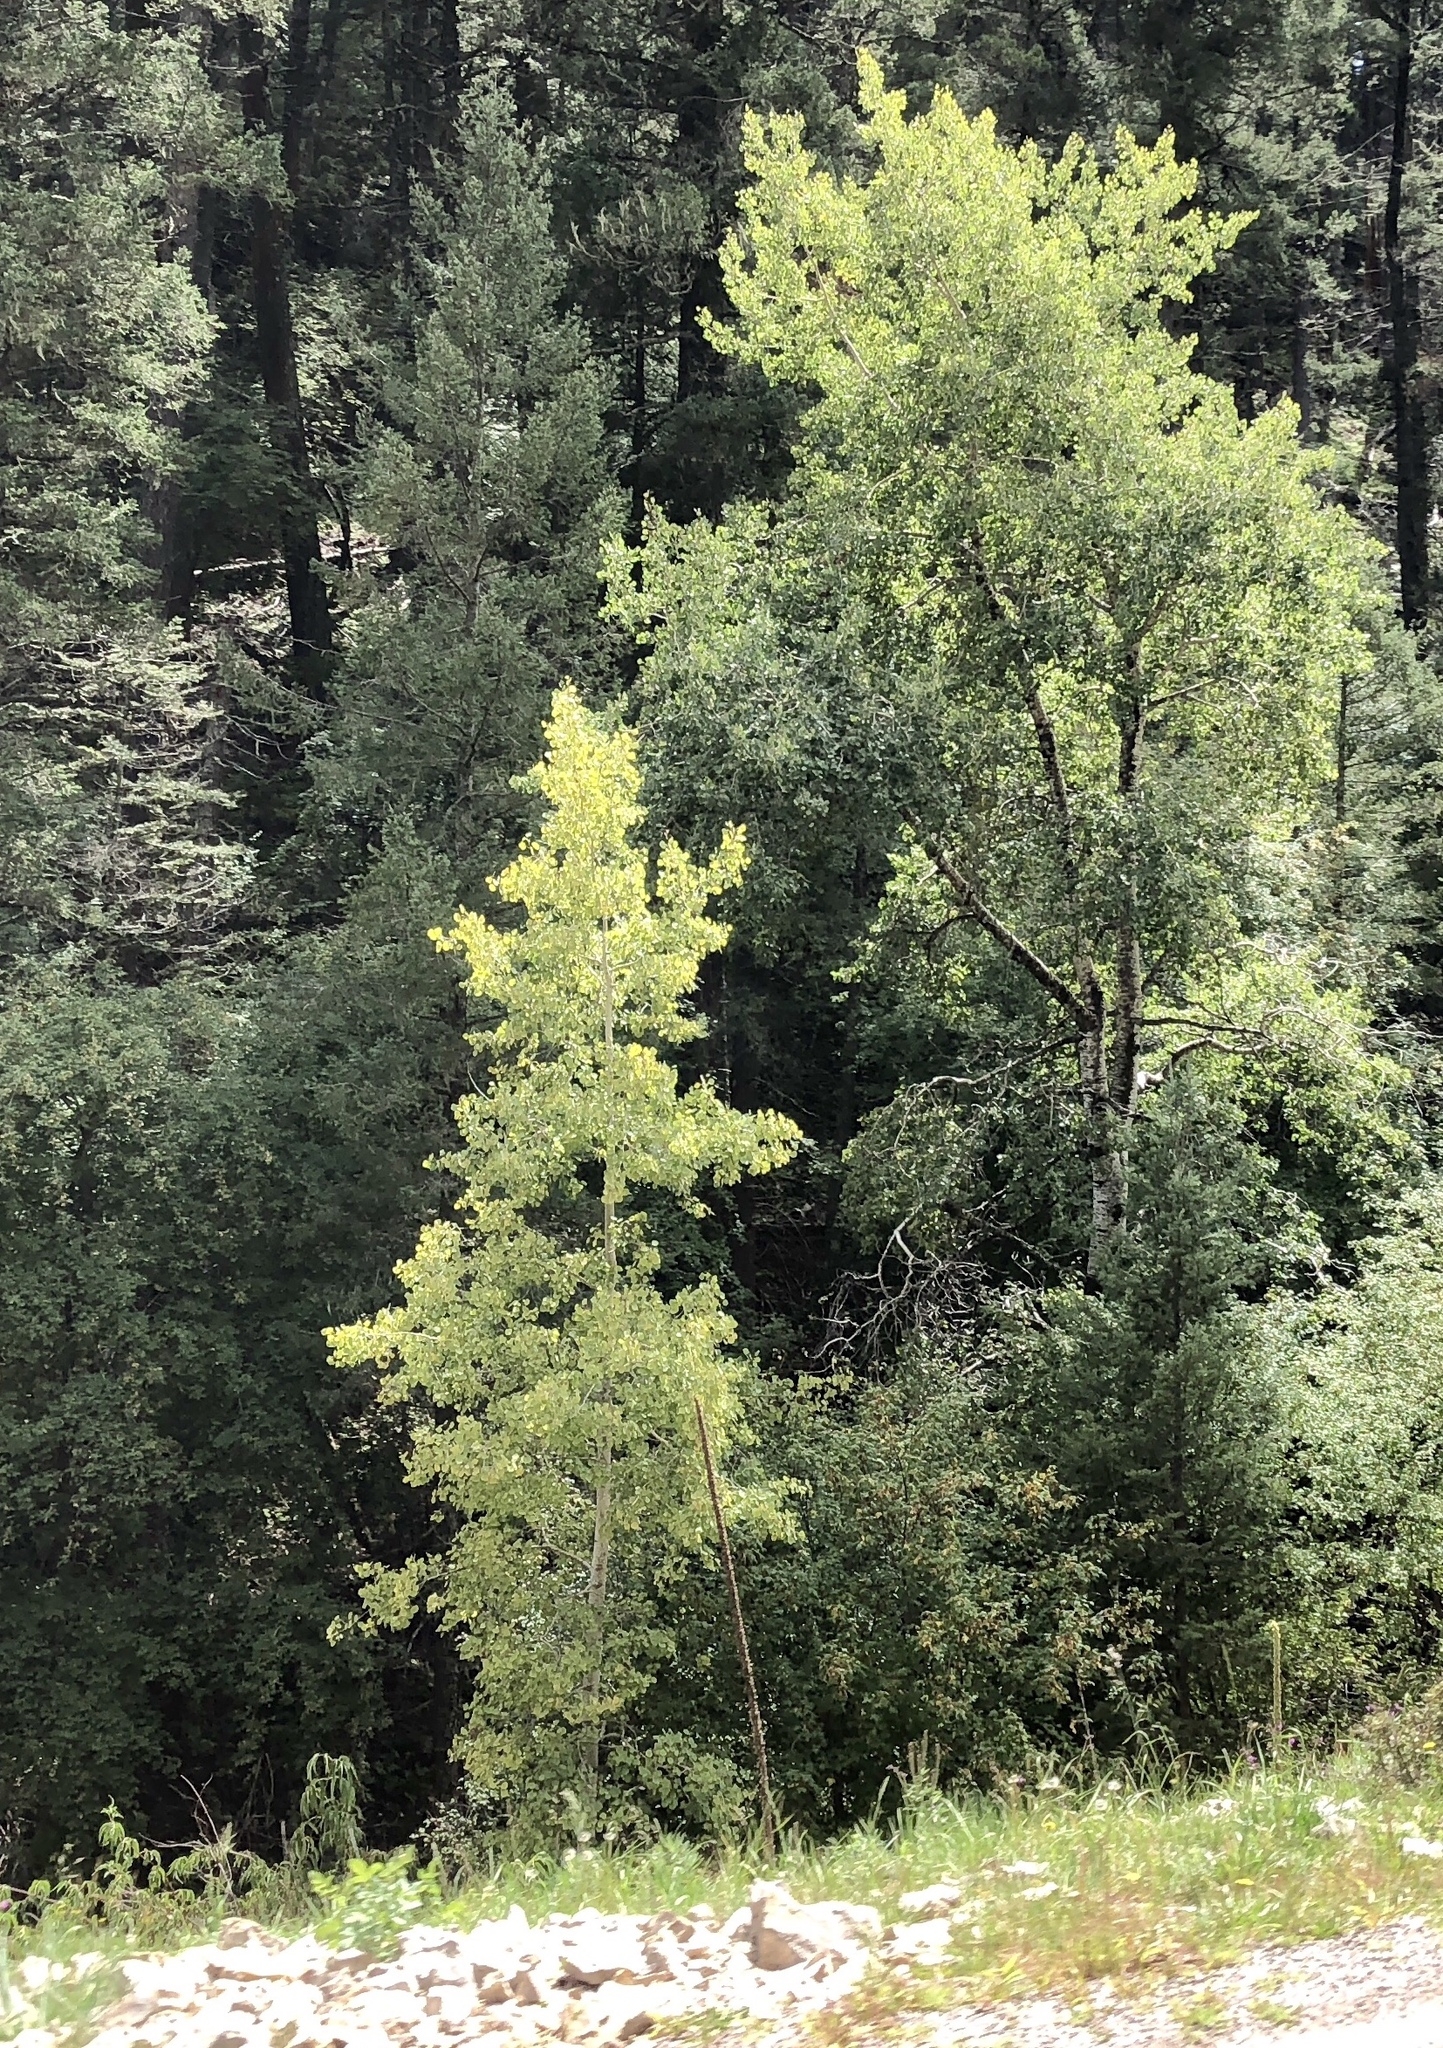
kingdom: Plantae
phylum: Tracheophyta
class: Magnoliopsida
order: Malpighiales
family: Salicaceae
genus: Populus
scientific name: Populus tremuloides
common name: Quaking aspen
